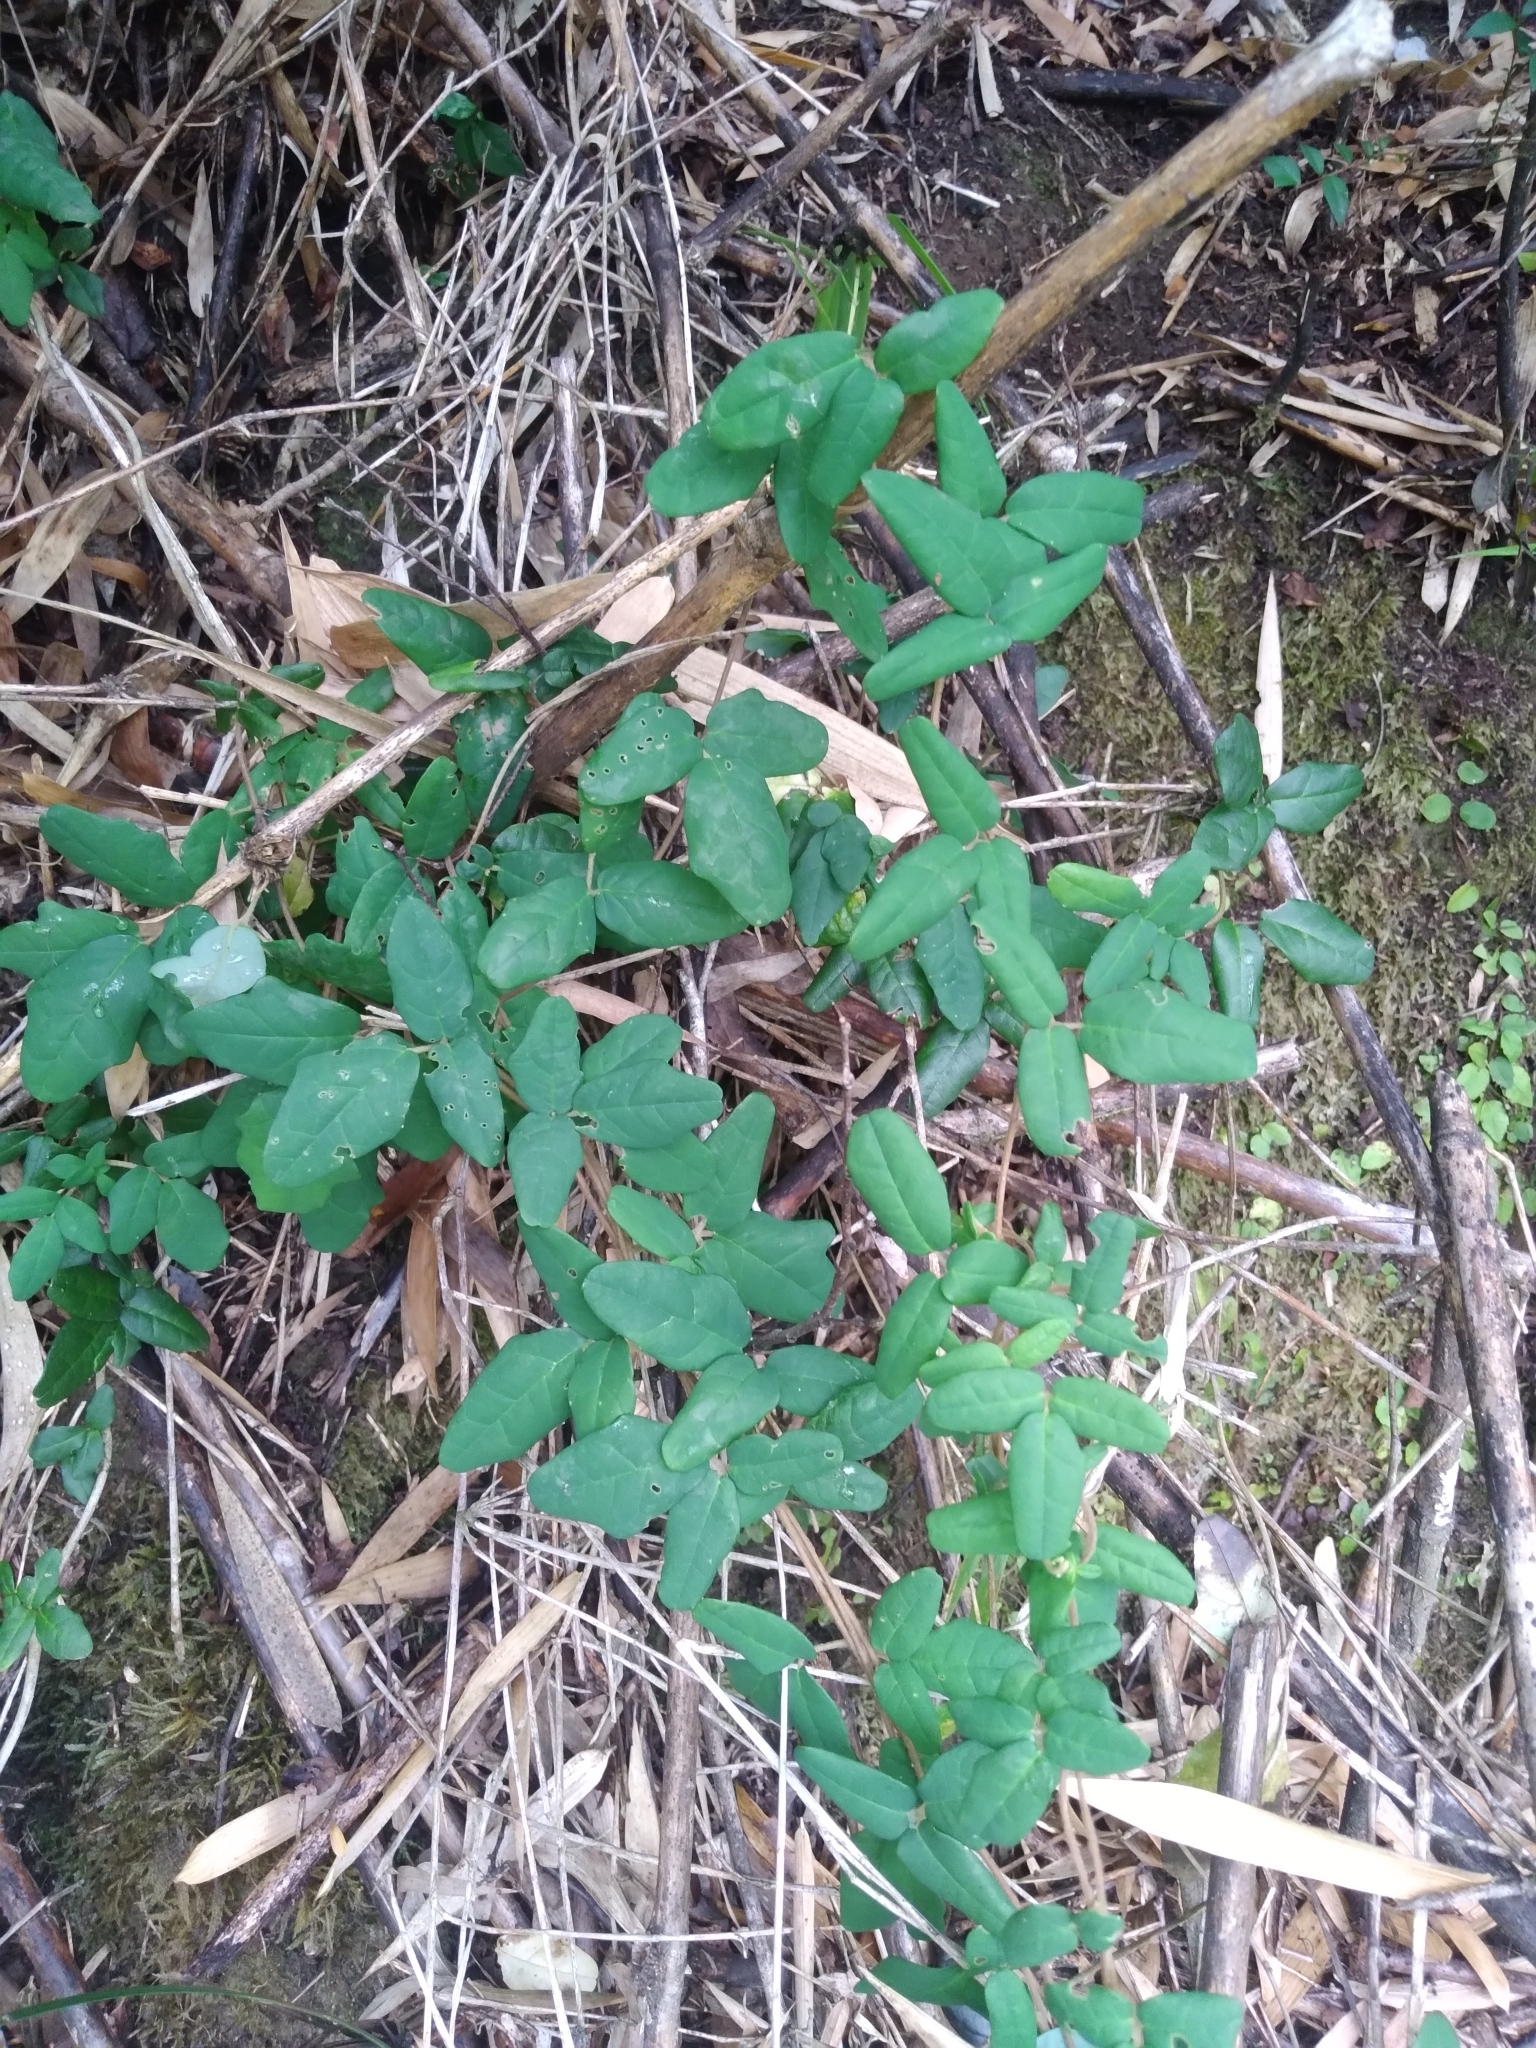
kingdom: Plantae
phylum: Tracheophyta
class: Magnoliopsida
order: Ranunculales
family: Lardizabalaceae
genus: Boquila
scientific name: Boquila trifoliolata
